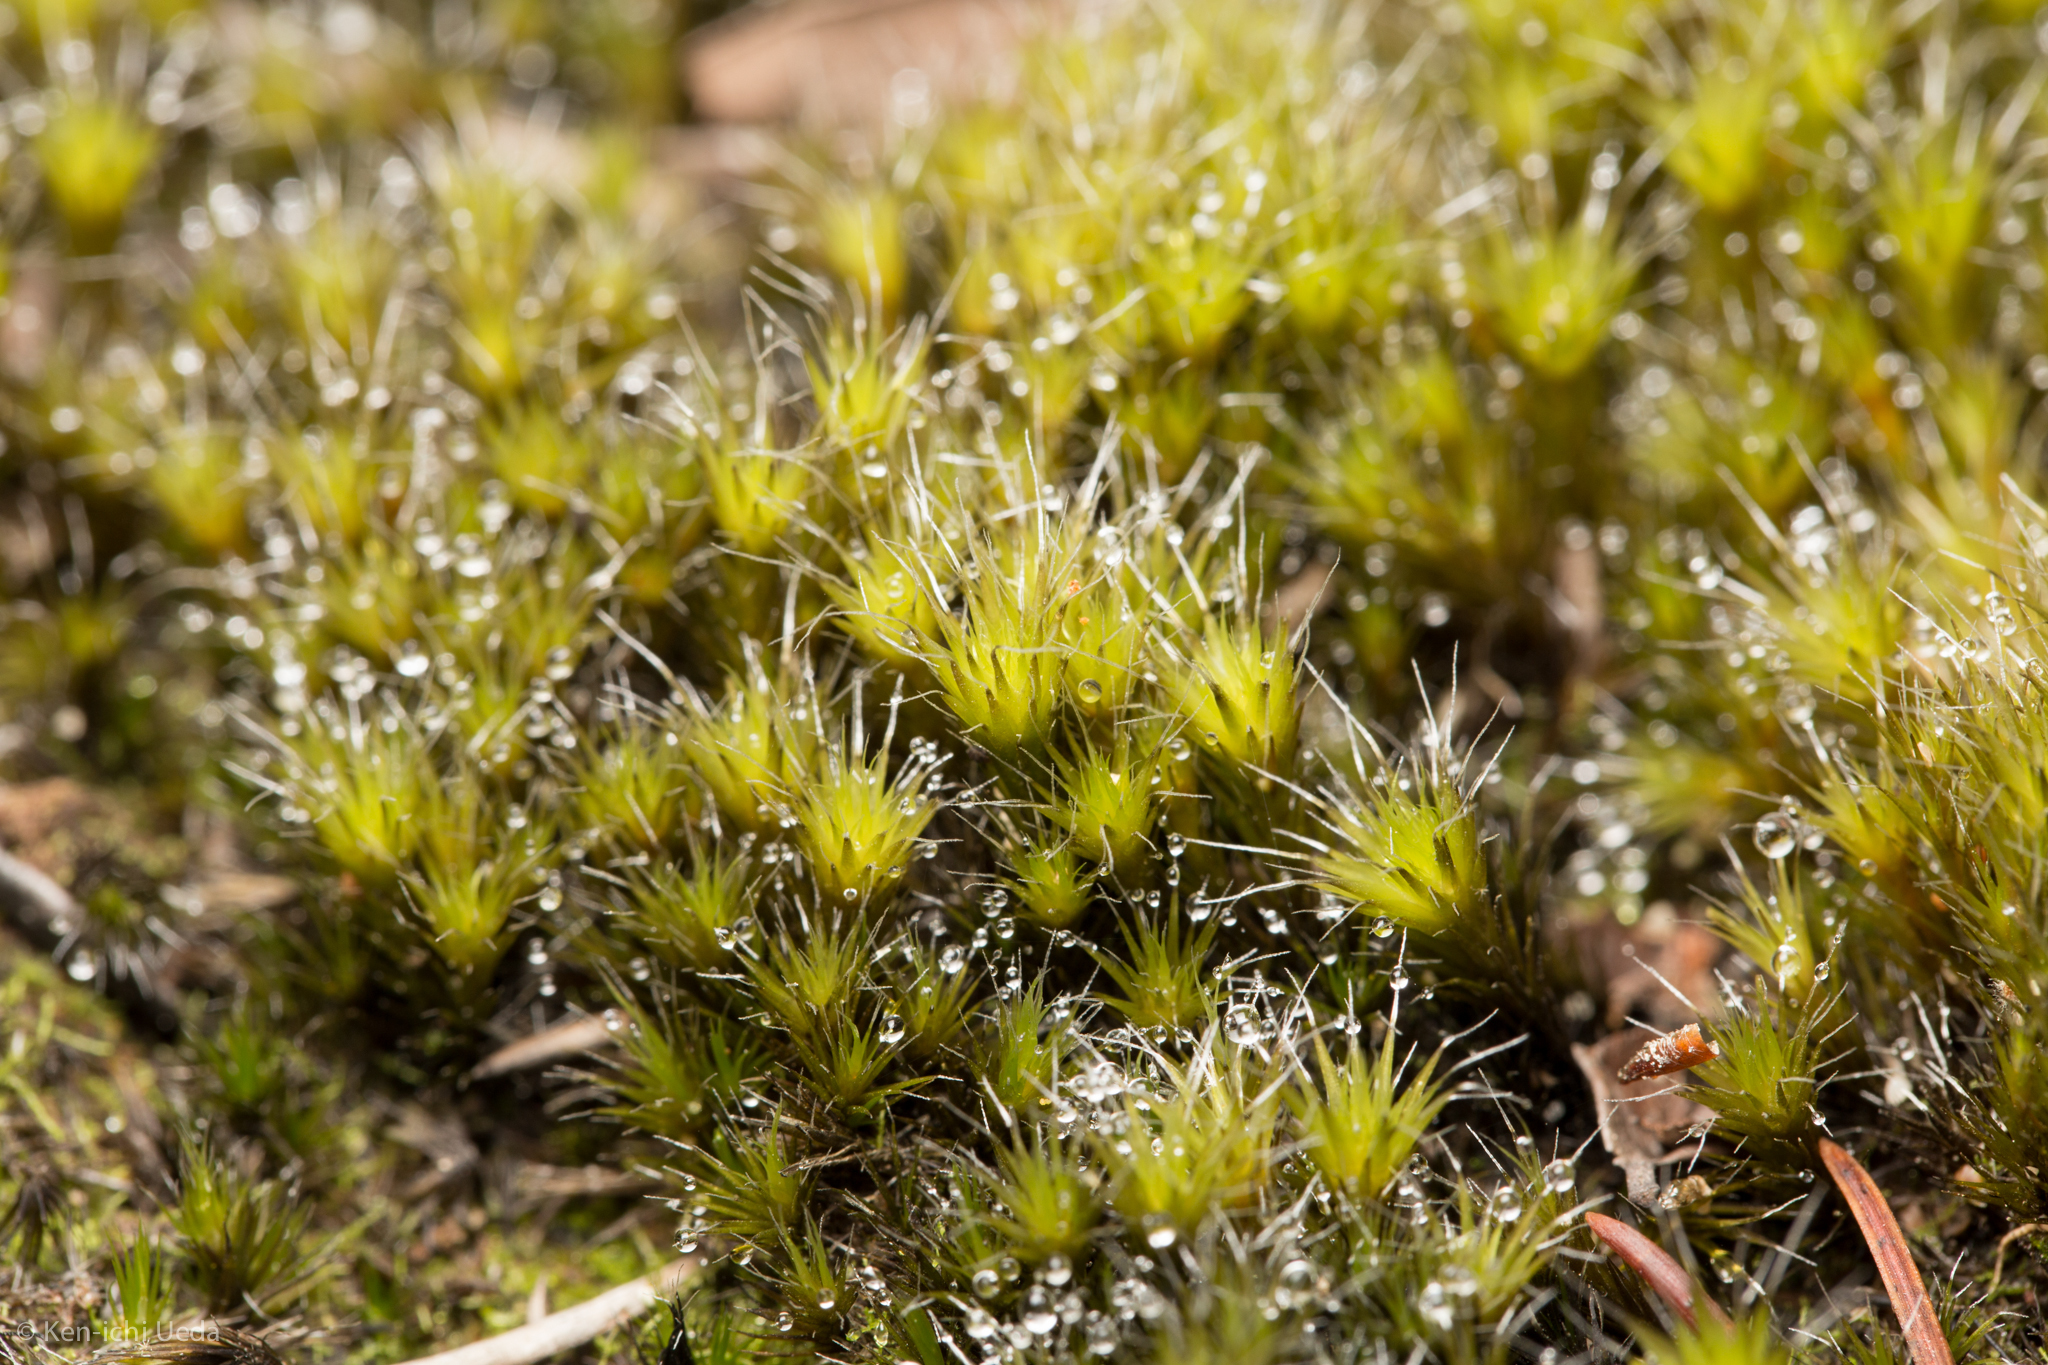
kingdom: Plantae
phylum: Bryophyta
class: Bryopsida
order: Dicranales
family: Leucobryaceae
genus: Campylopus
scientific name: Campylopus introflexus
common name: Heath star moss
